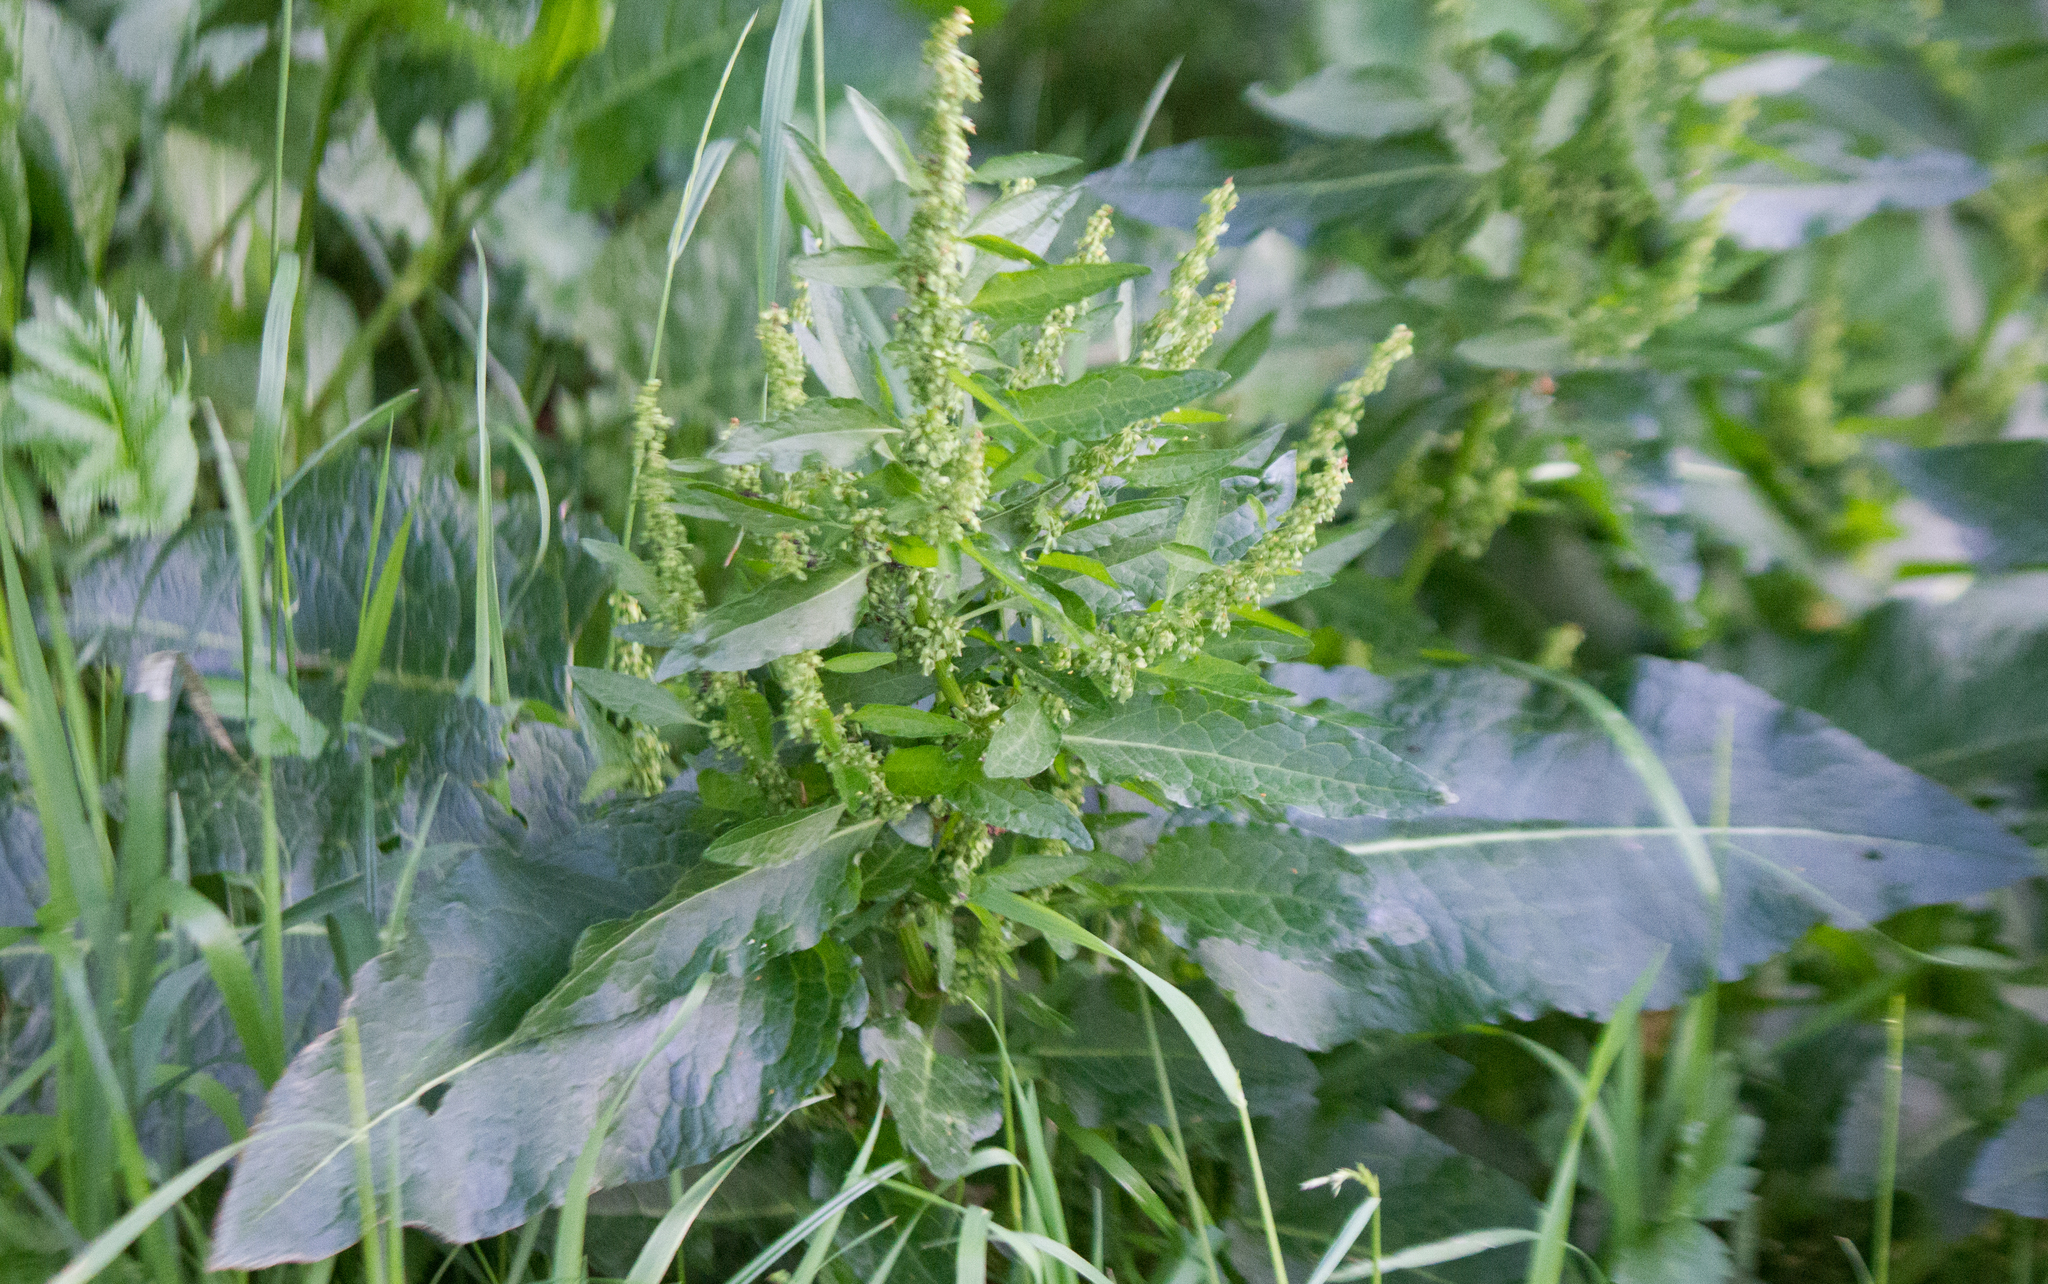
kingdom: Plantae
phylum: Tracheophyta
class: Magnoliopsida
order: Caryophyllales
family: Polygonaceae
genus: Rumex
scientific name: Rumex obtusifolius
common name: Bitter dock
